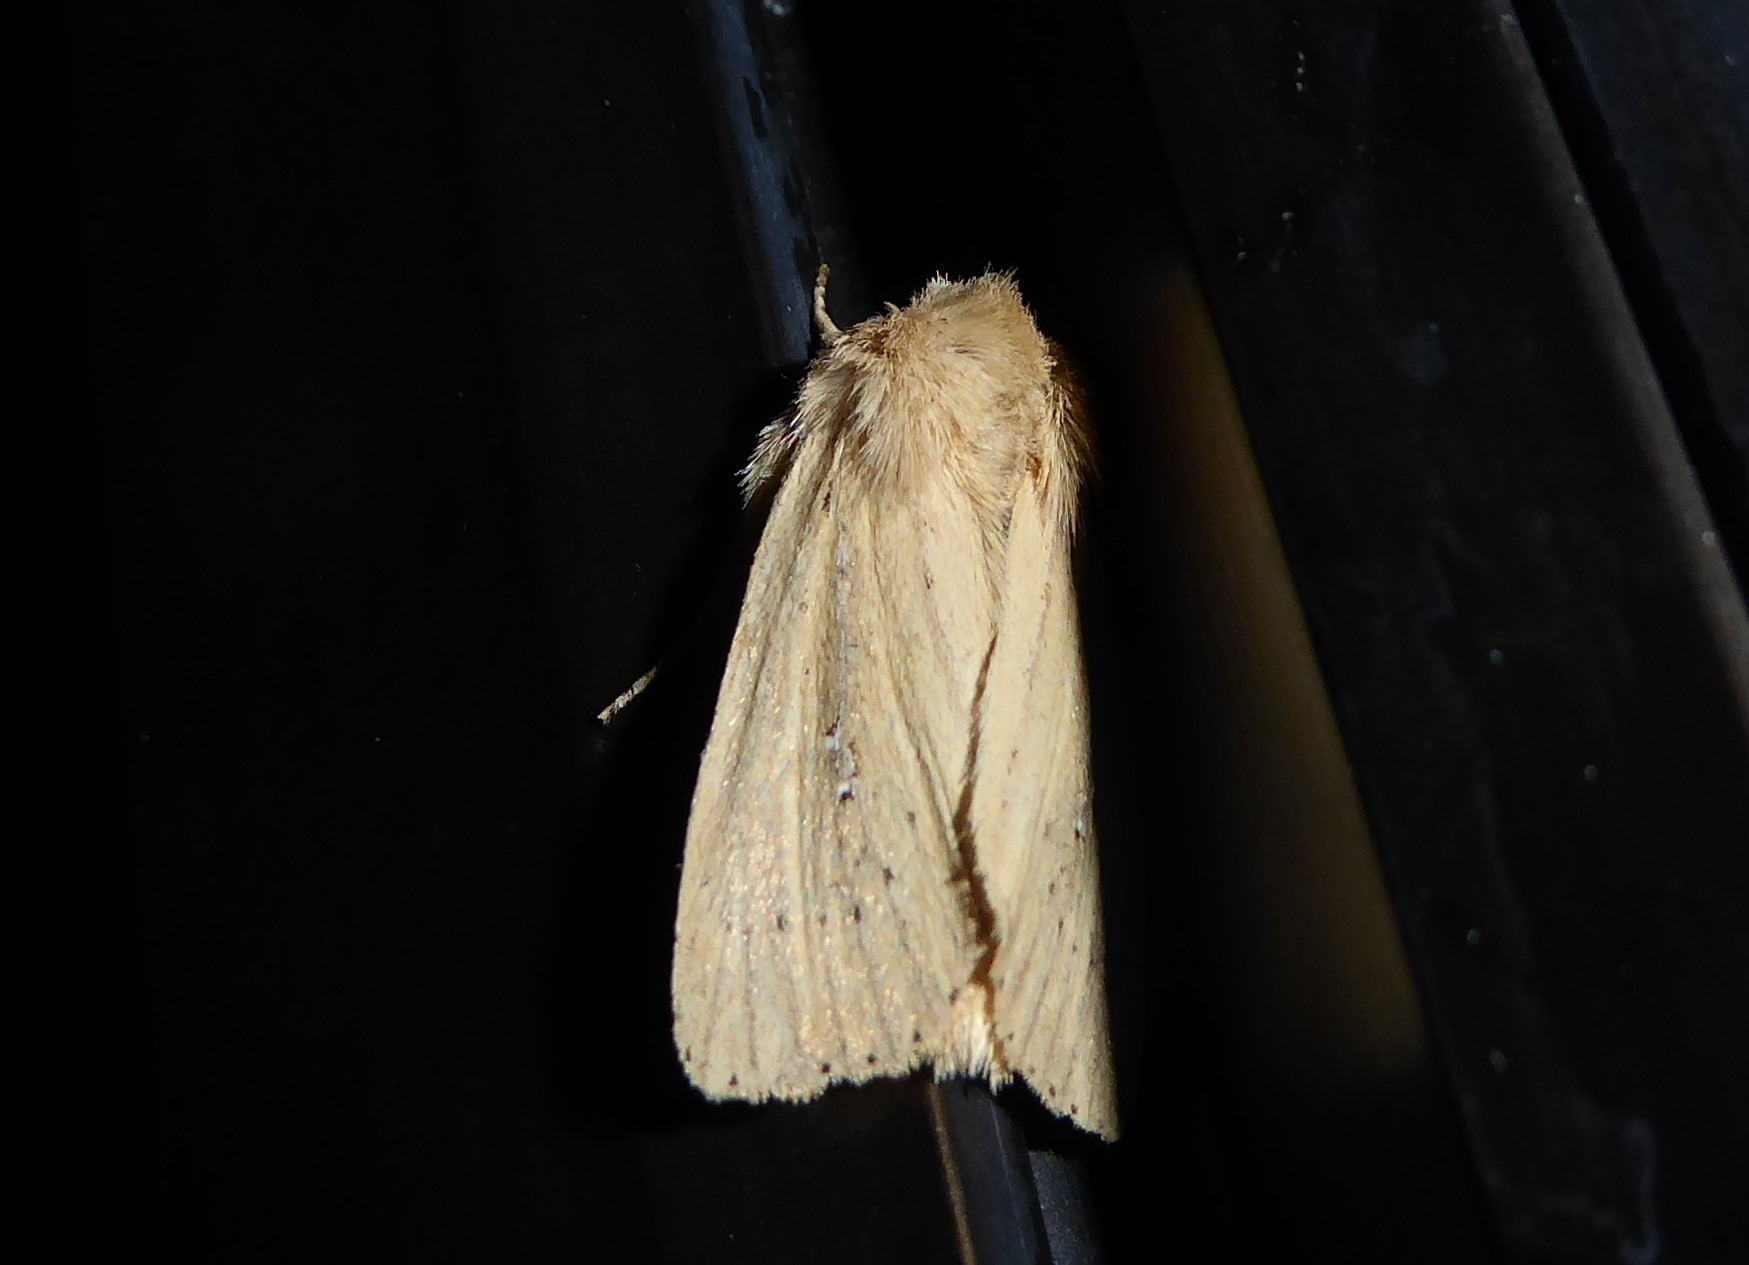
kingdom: Animalia
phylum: Arthropoda
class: Insecta
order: Lepidoptera
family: Noctuidae
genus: Ichneutica
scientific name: Ichneutica
